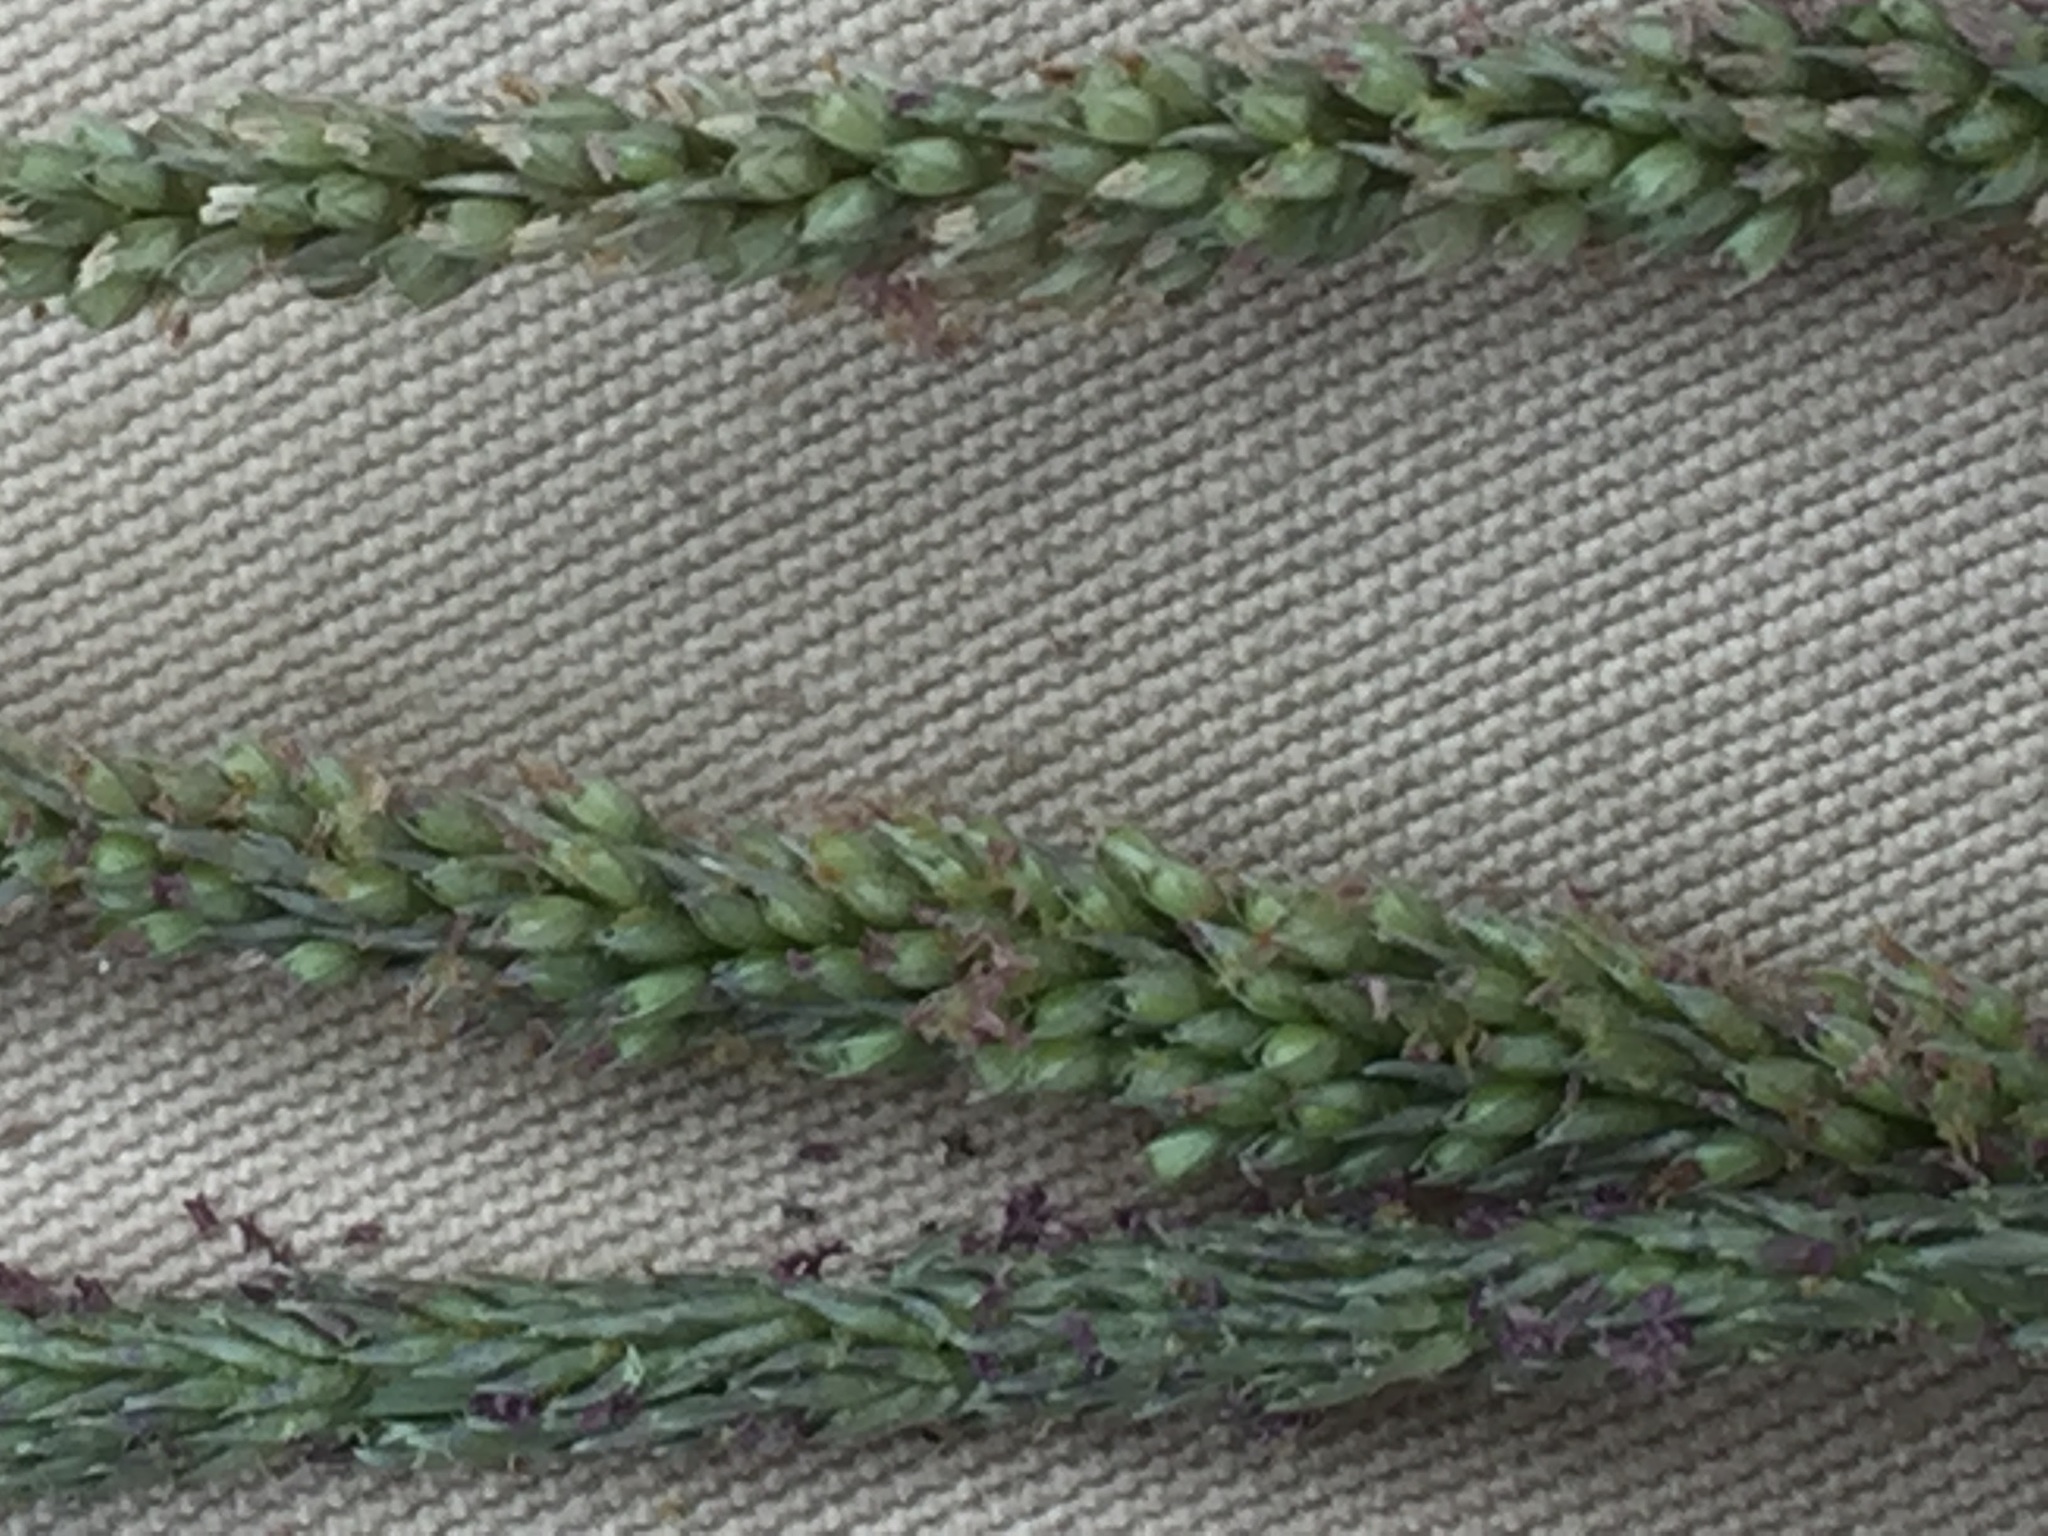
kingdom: Plantae
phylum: Tracheophyta
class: Liliopsida
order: Poales
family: Poaceae
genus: Sporobolus
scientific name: Sporobolus indicus
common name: Smut grass
